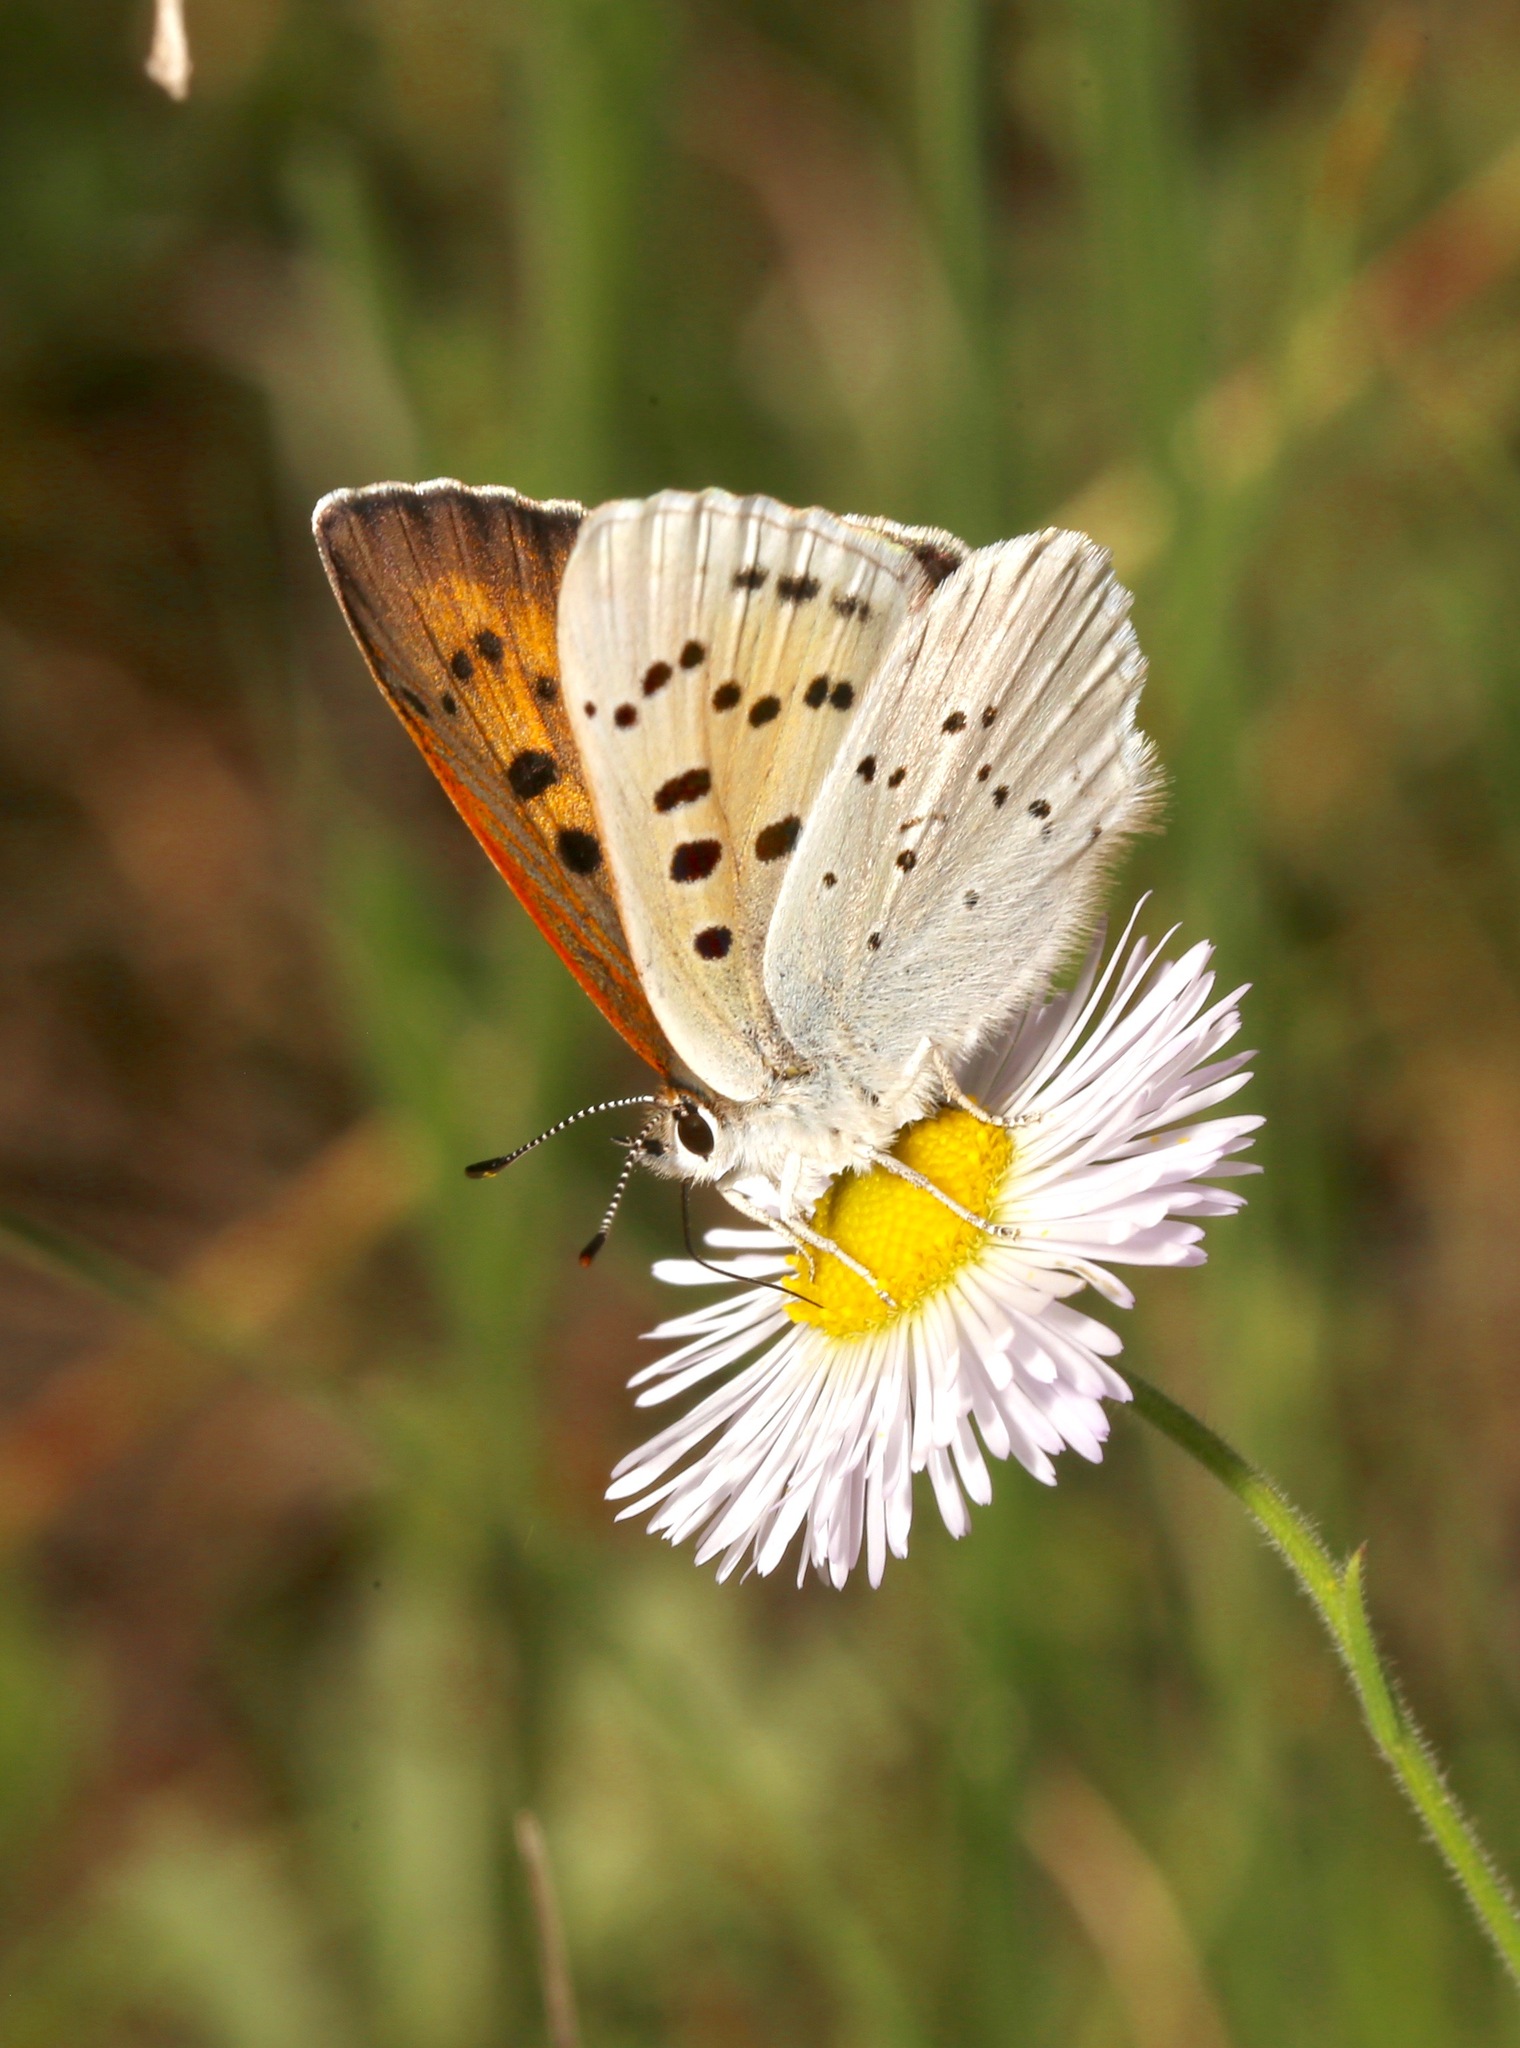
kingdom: Animalia
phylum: Arthropoda
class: Insecta
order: Lepidoptera
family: Lycaenidae
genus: Tharsalea
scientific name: Tharsalea rubidus
